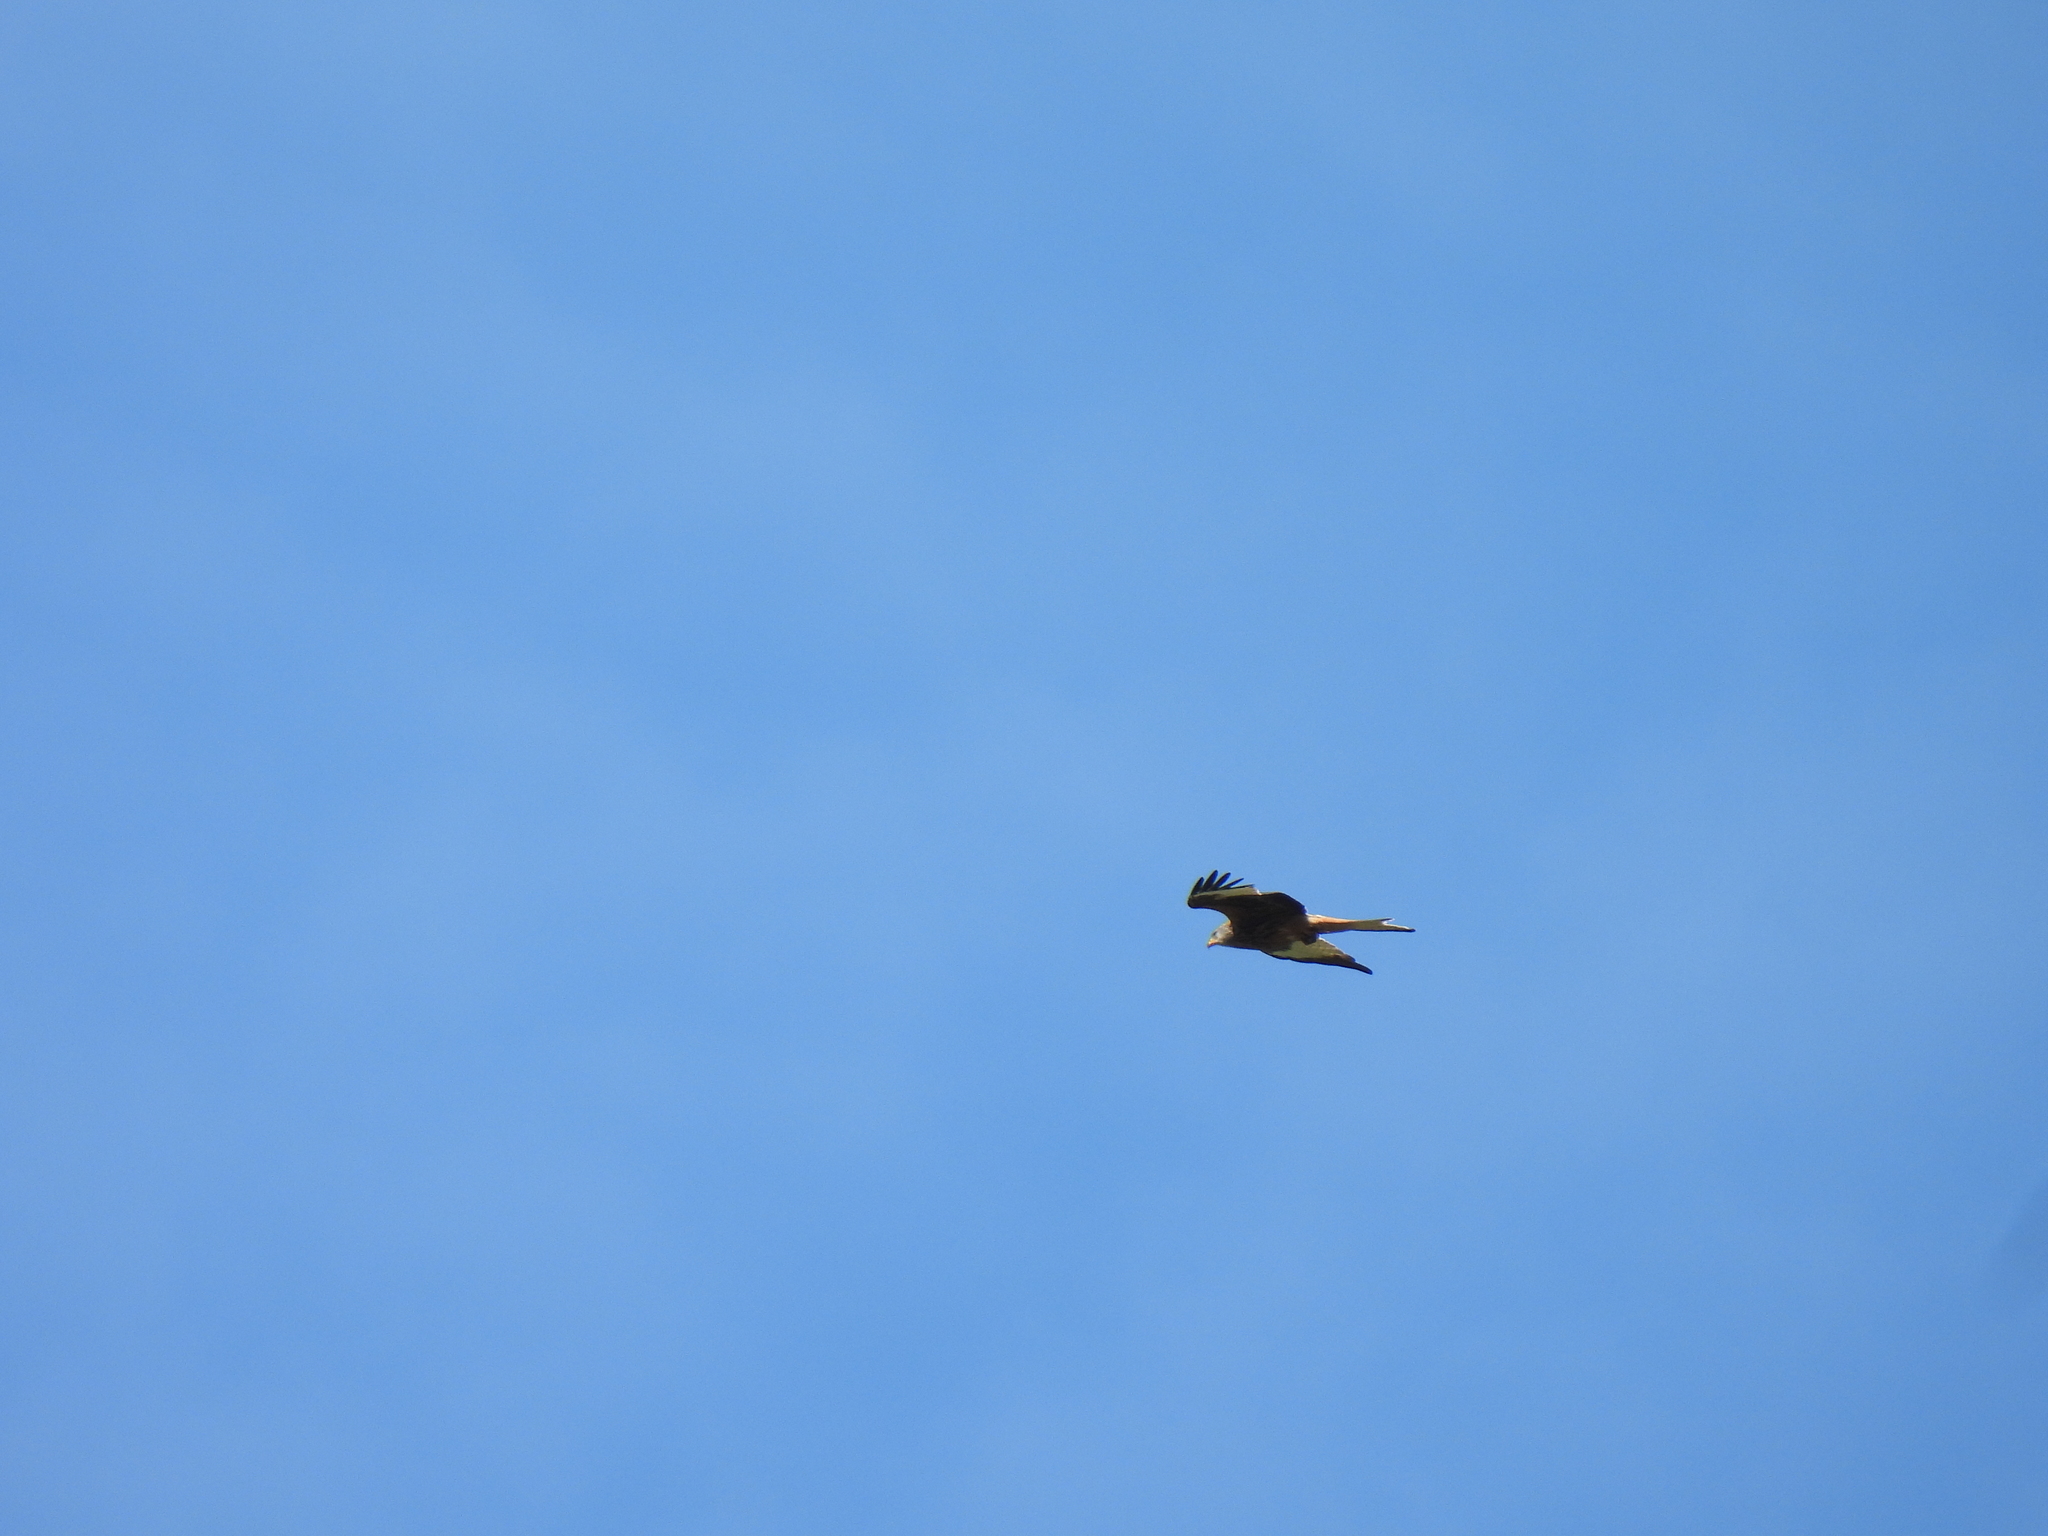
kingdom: Animalia
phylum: Chordata
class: Aves
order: Accipitriformes
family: Accipitridae
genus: Milvus
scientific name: Milvus milvus
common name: Red kite
